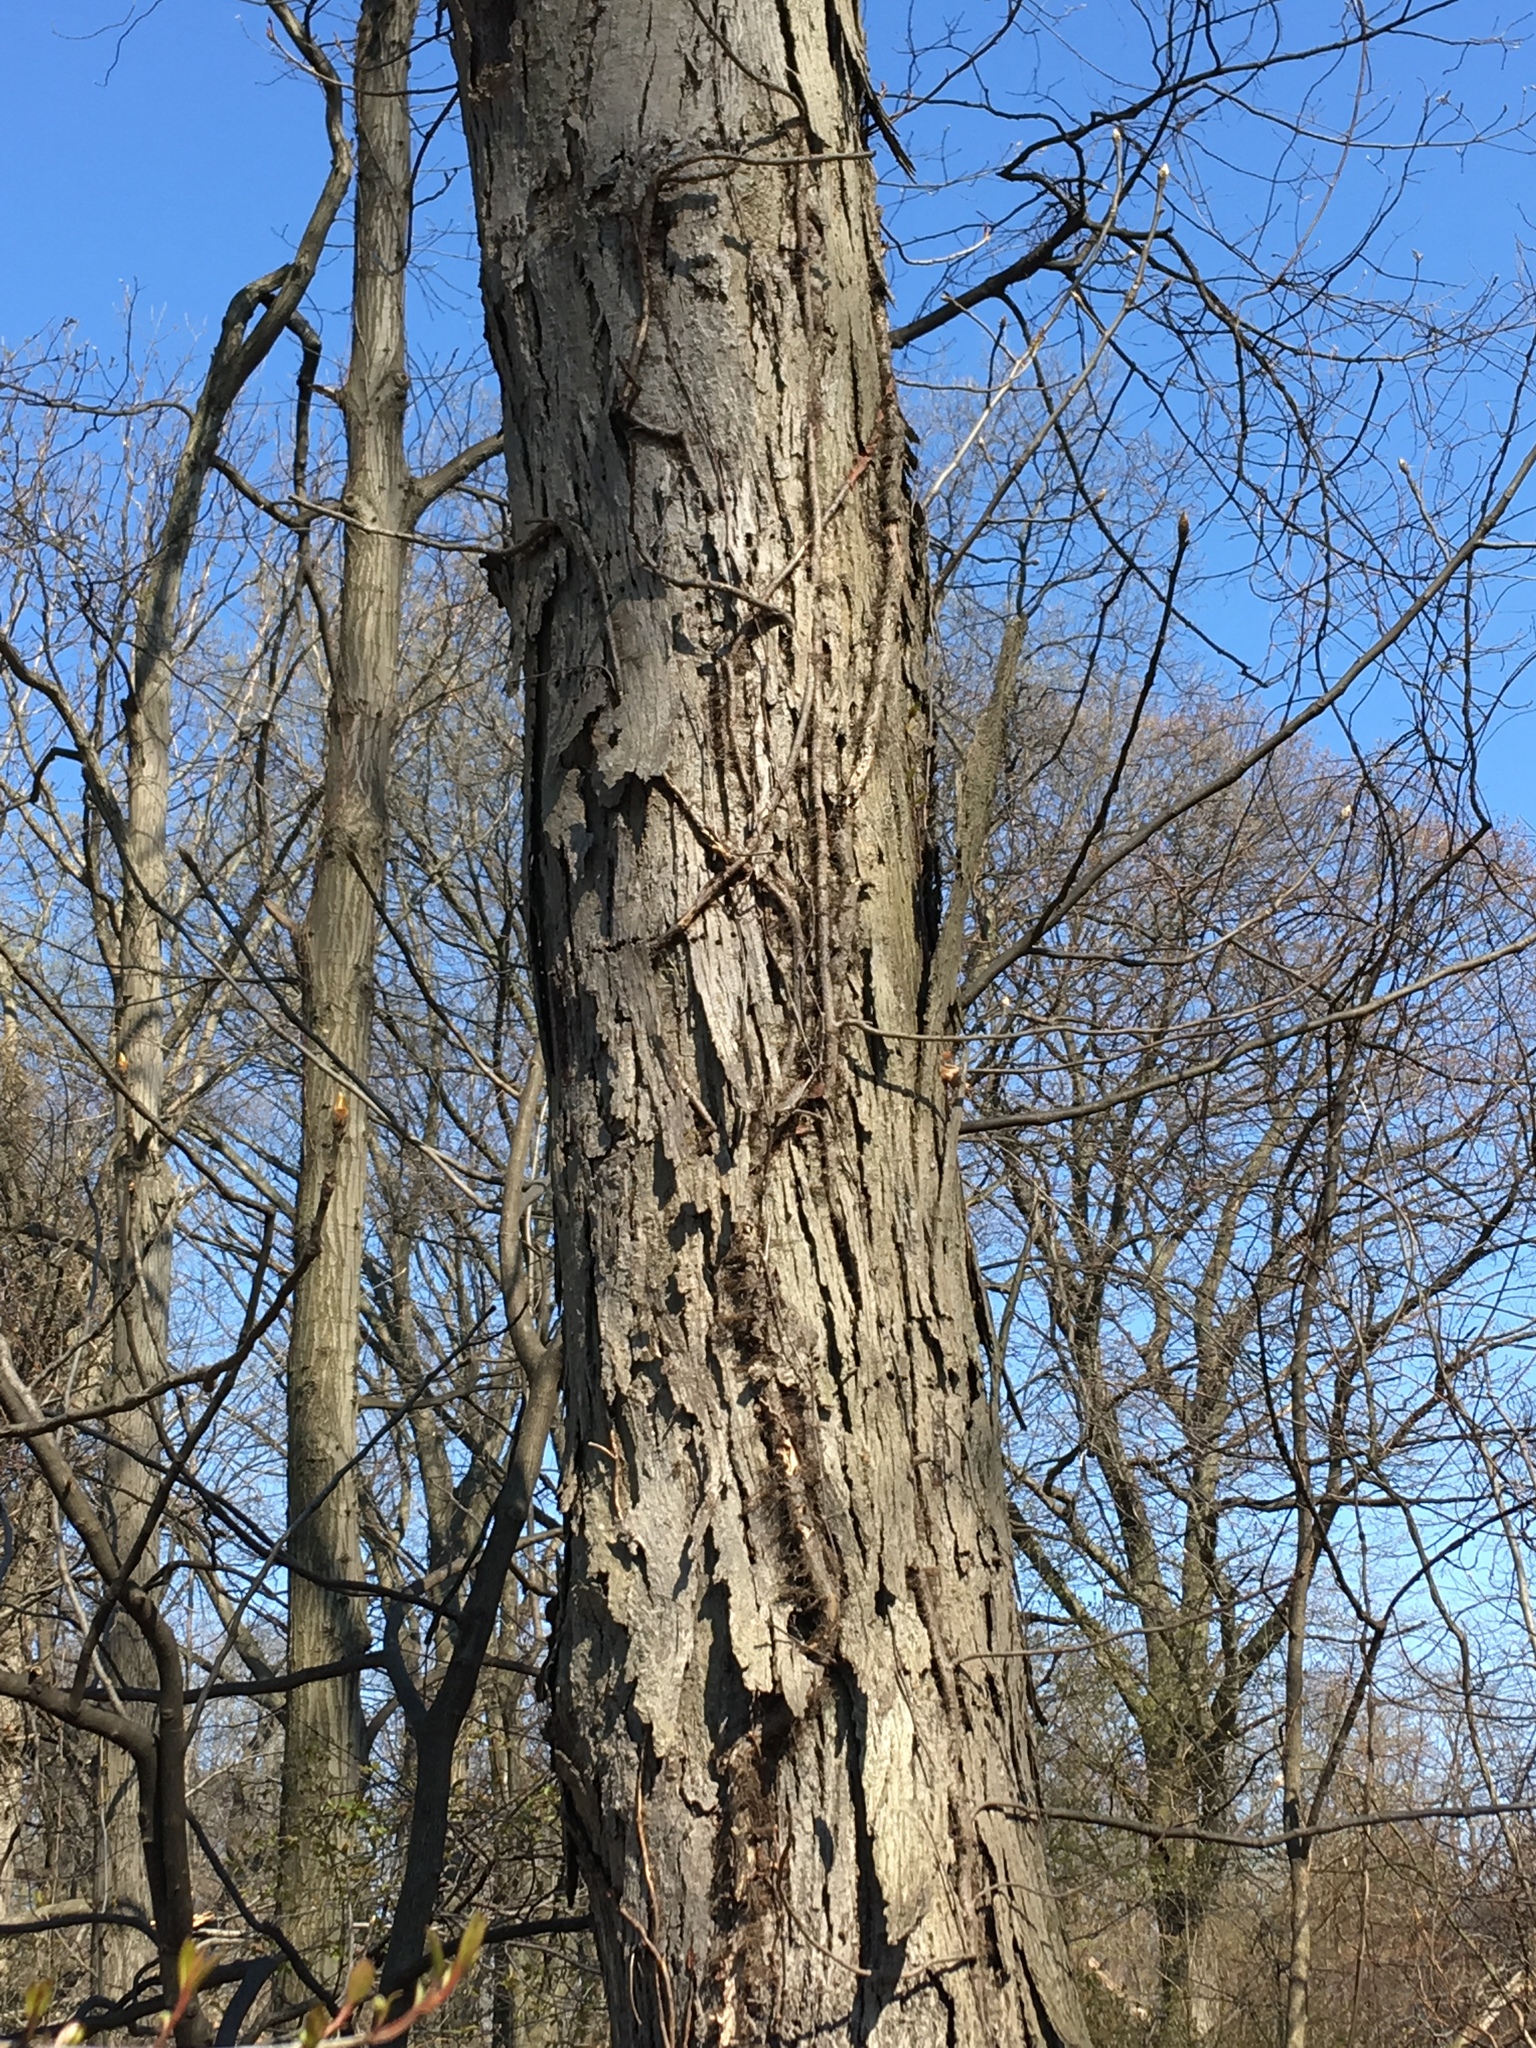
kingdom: Plantae
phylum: Tracheophyta
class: Magnoliopsida
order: Fagales
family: Juglandaceae
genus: Carya
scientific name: Carya ovata
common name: Shagbark hickory
